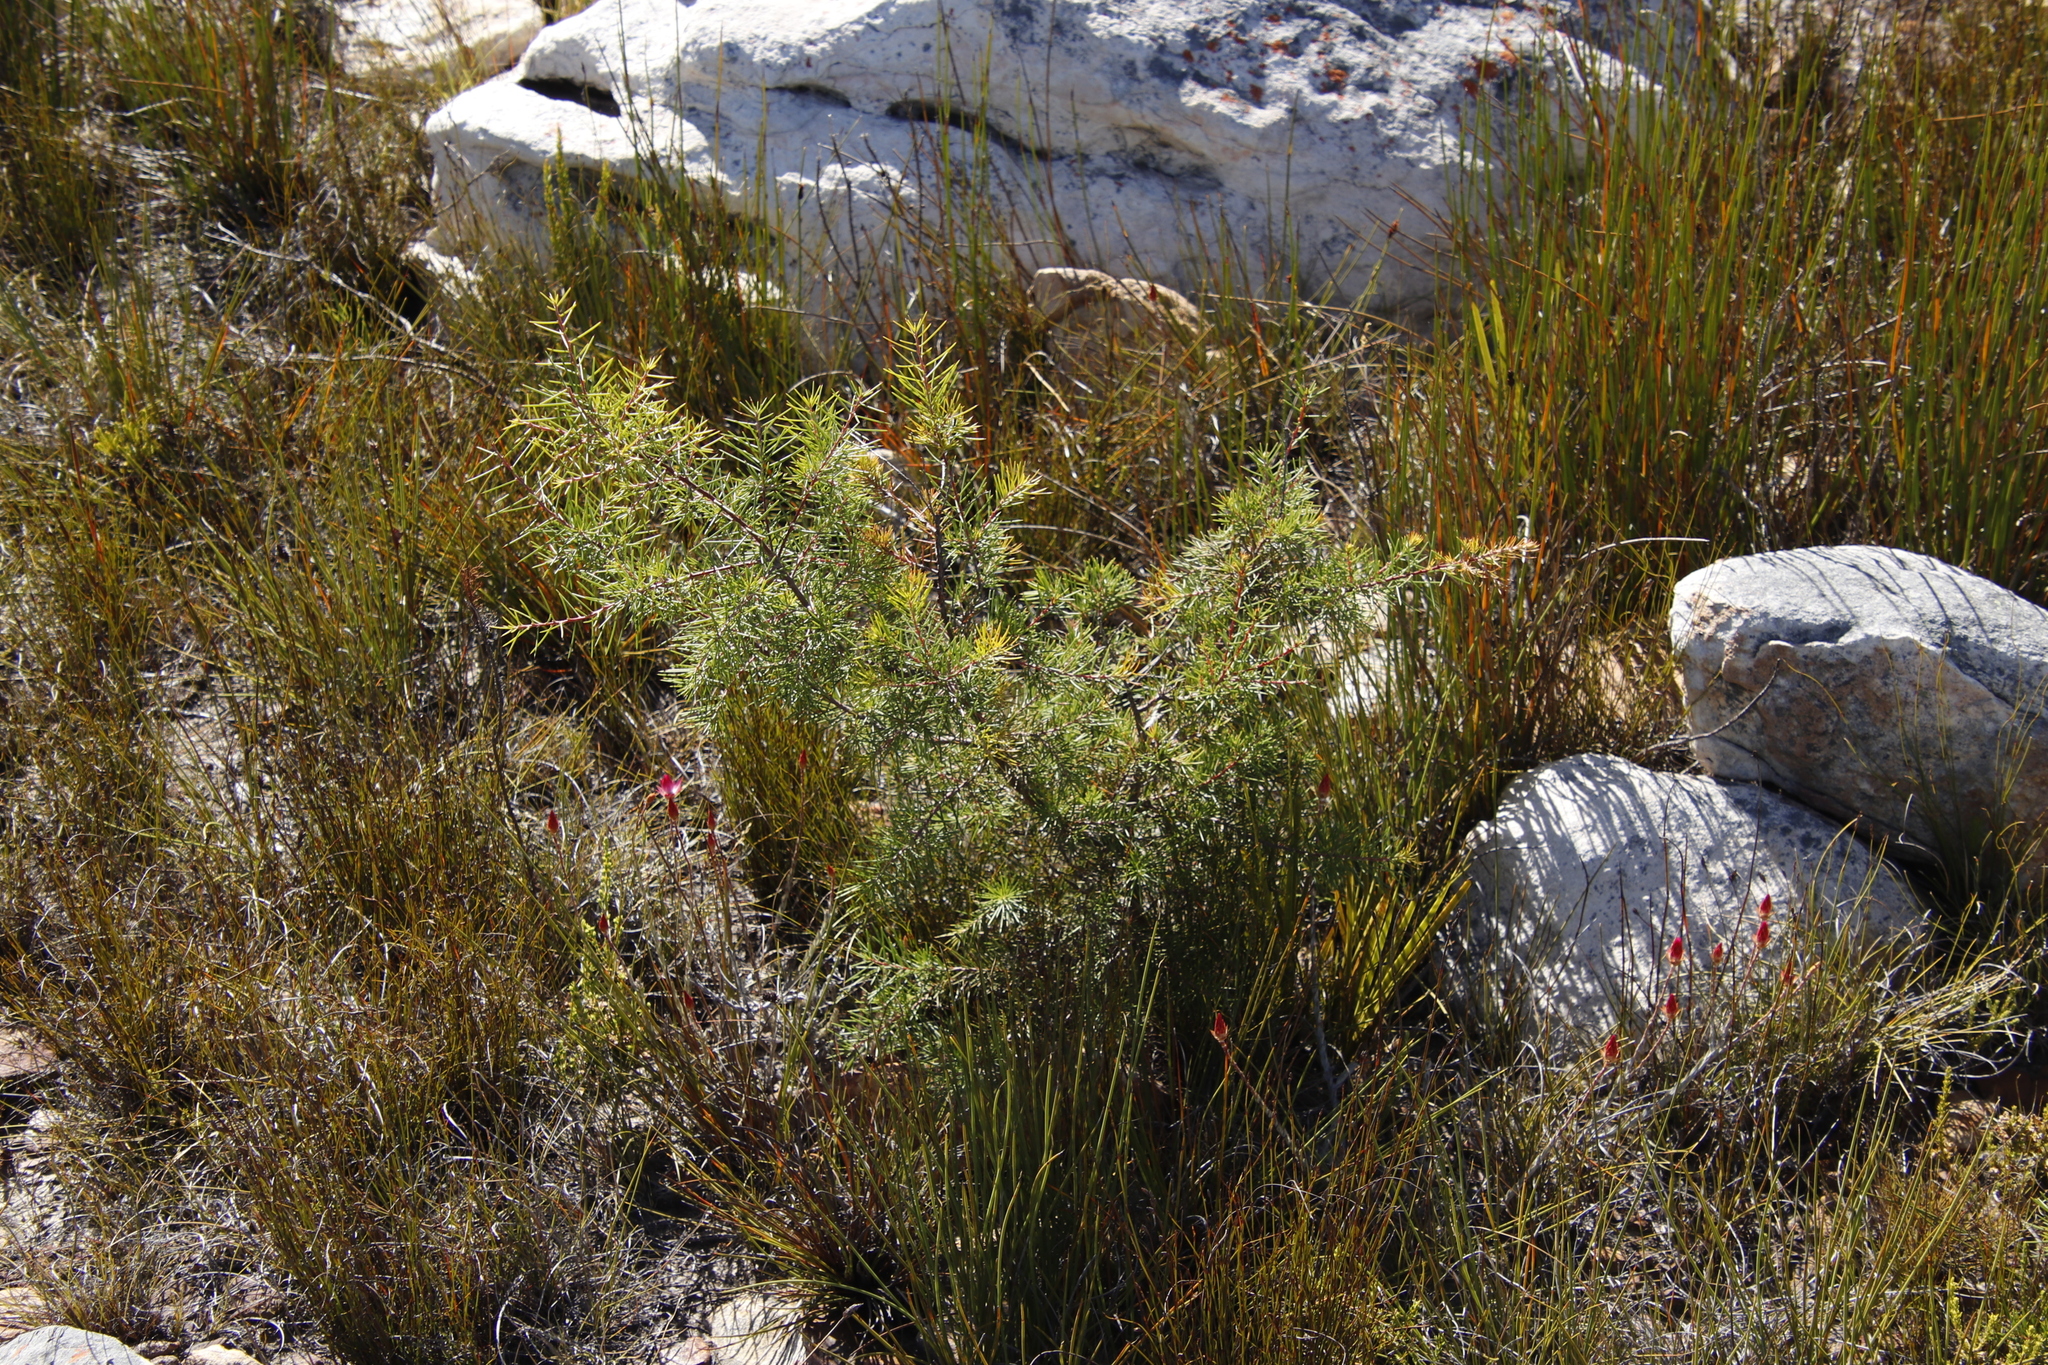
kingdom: Plantae
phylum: Tracheophyta
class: Magnoliopsida
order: Proteales
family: Proteaceae
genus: Hakea
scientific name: Hakea sericea
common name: Needle bush
